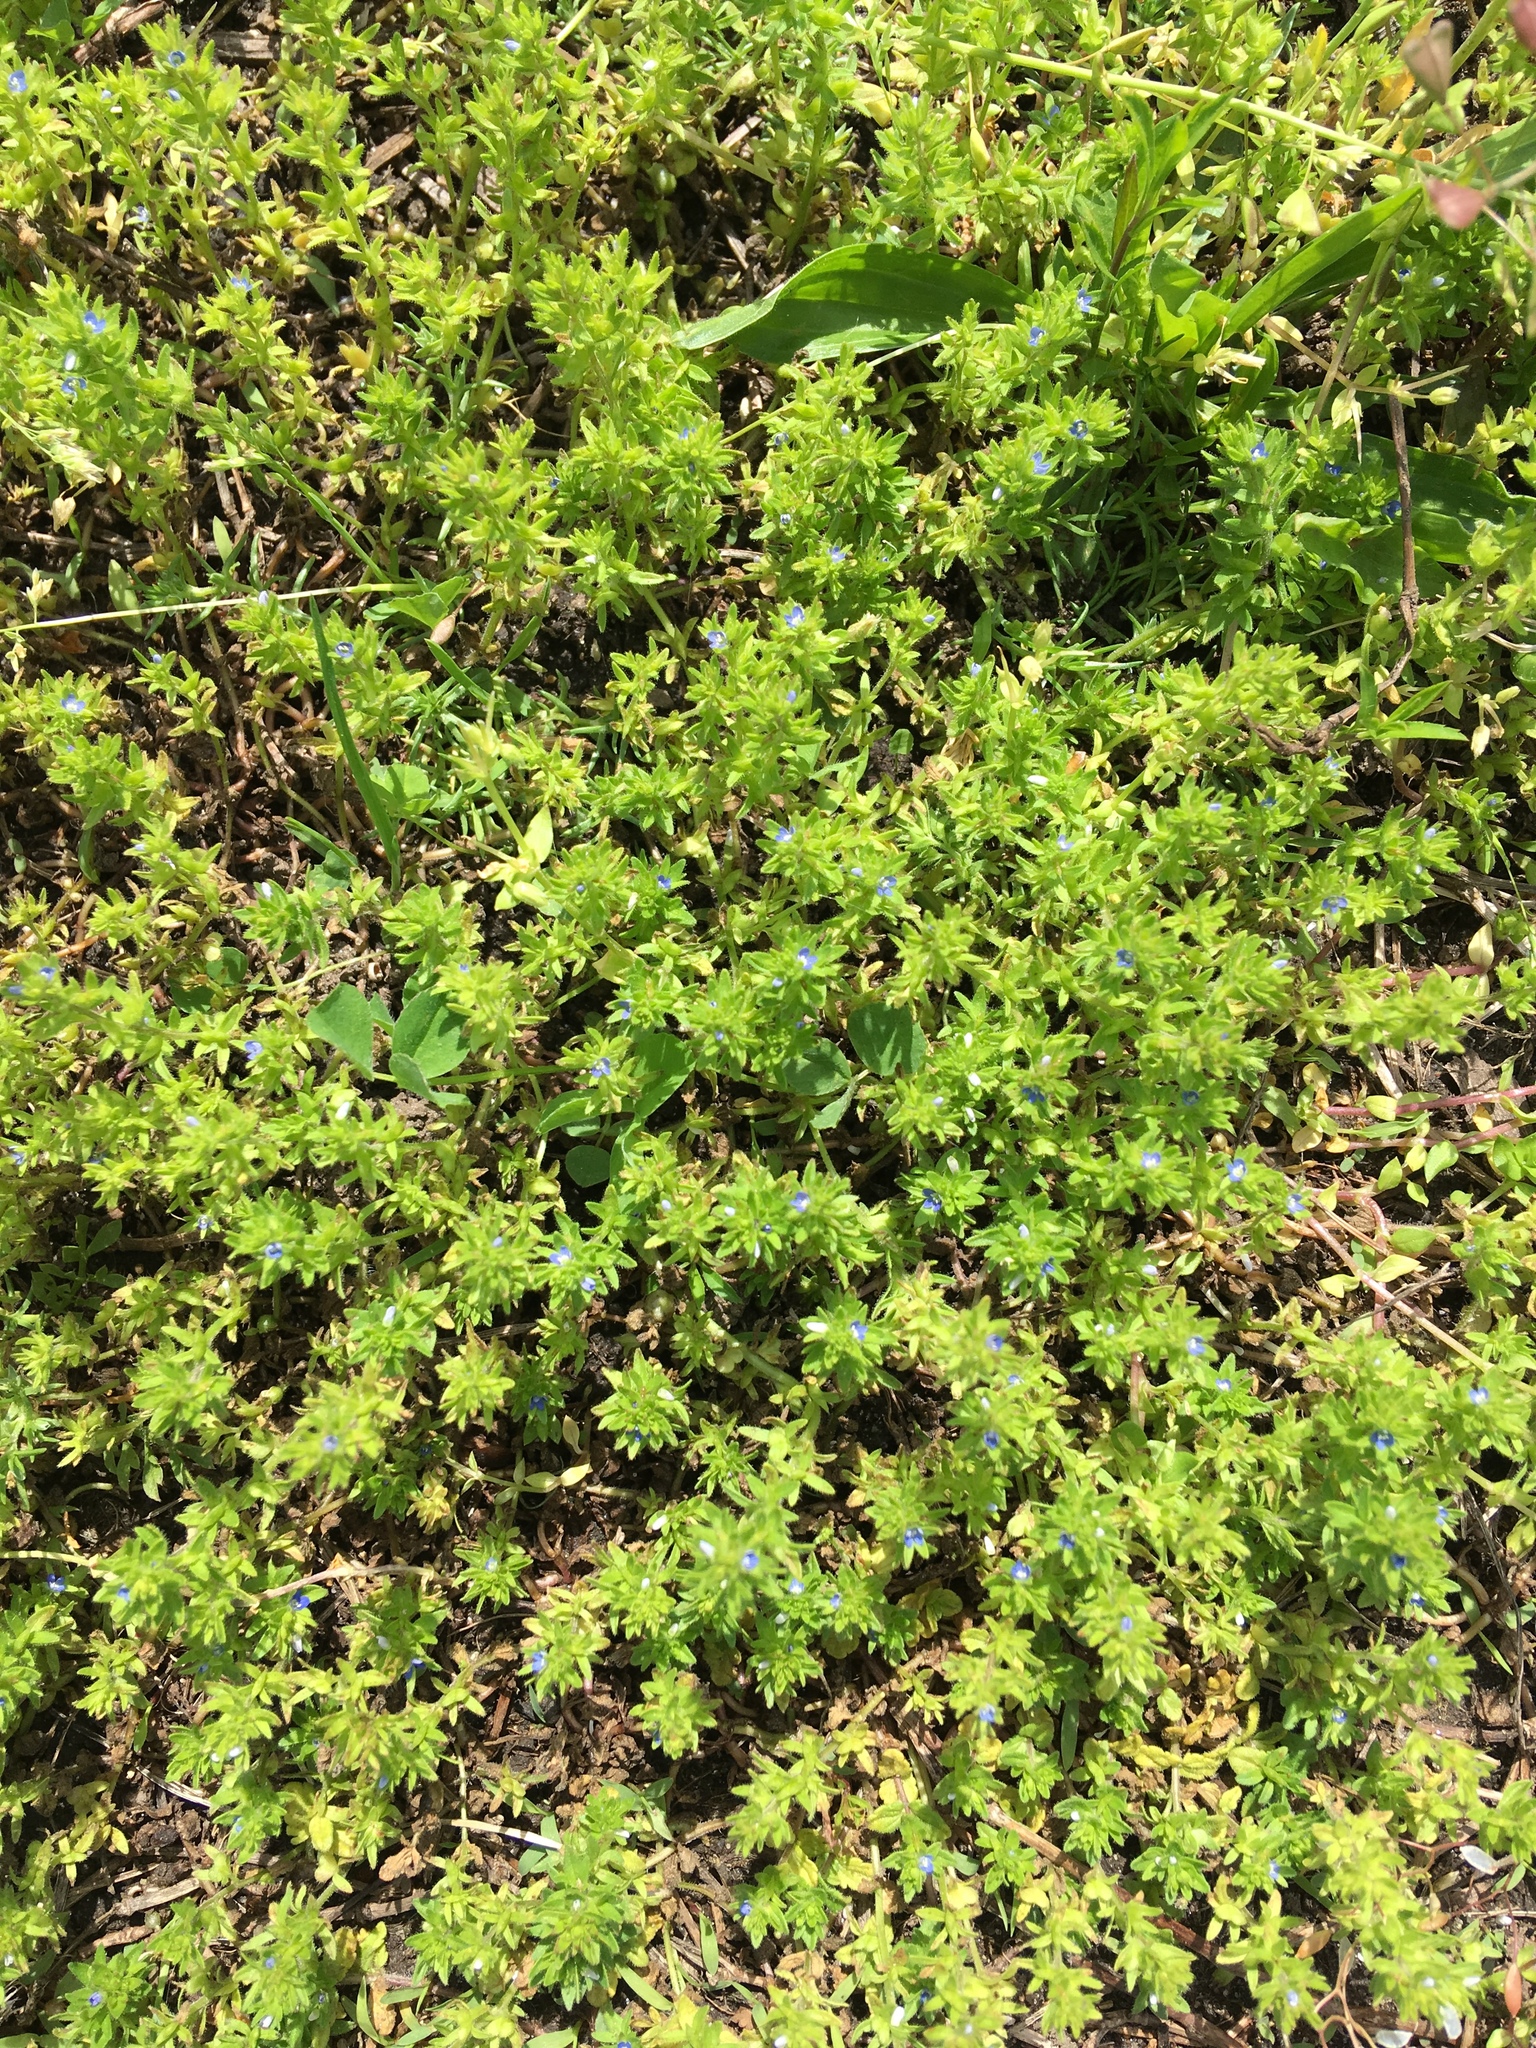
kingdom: Plantae
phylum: Tracheophyta
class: Magnoliopsida
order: Lamiales
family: Plantaginaceae
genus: Veronica
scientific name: Veronica arvensis
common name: Corn speedwell
